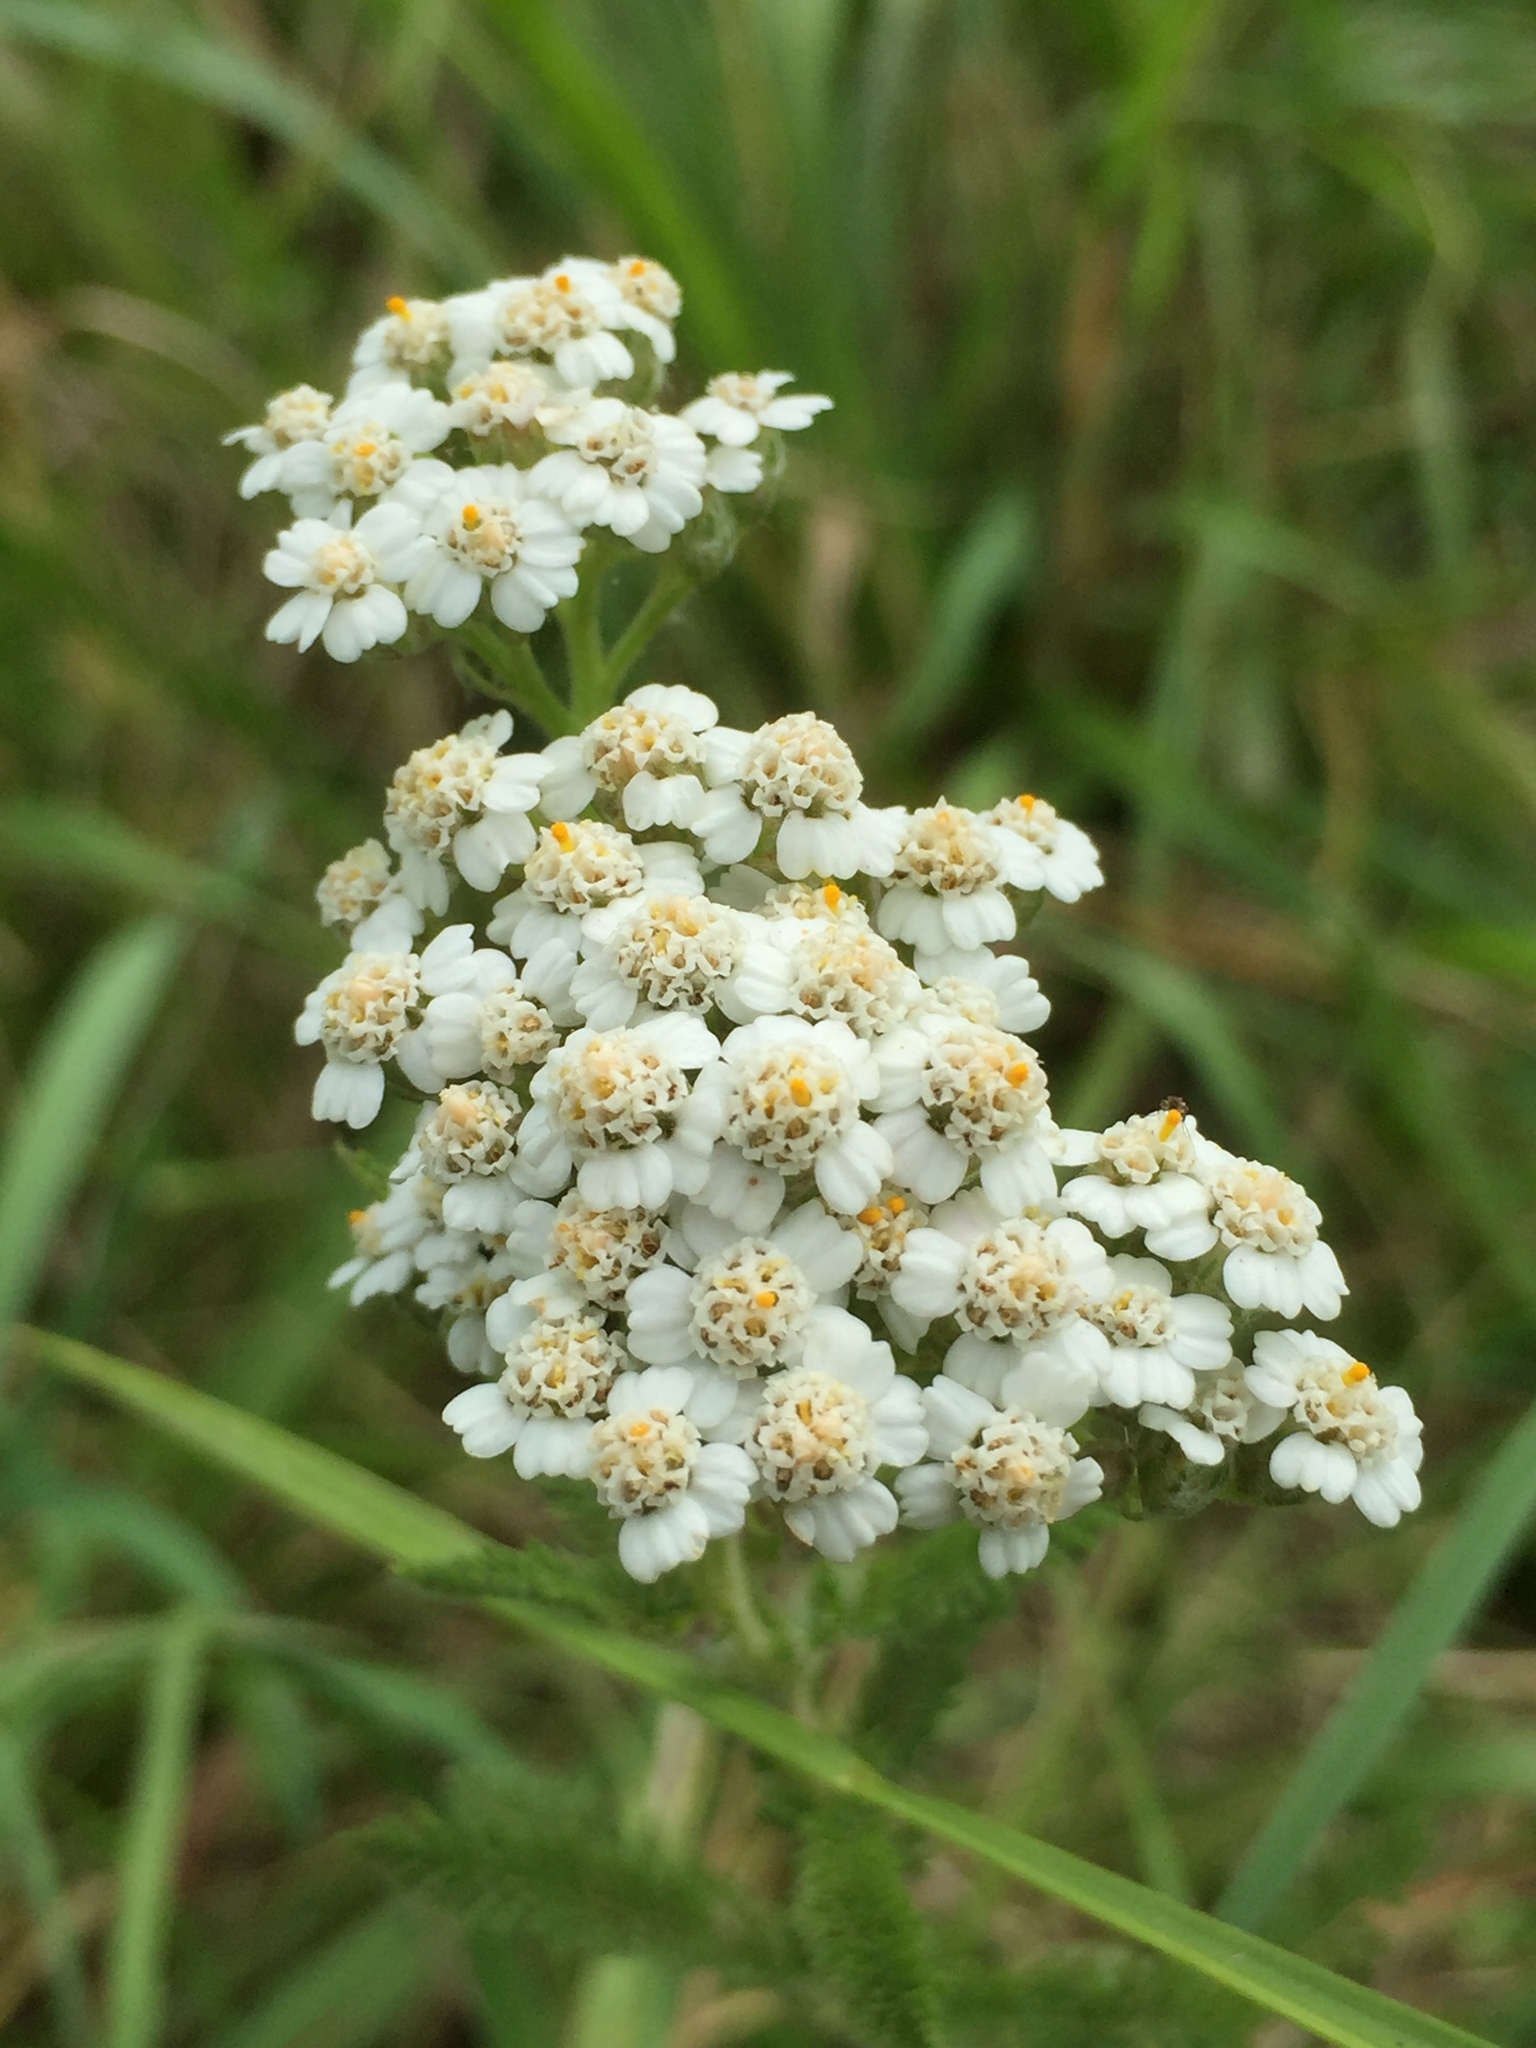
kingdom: Plantae
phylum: Tracheophyta
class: Magnoliopsida
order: Asterales
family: Asteraceae
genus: Achillea
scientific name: Achillea millefolium
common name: Yarrow
